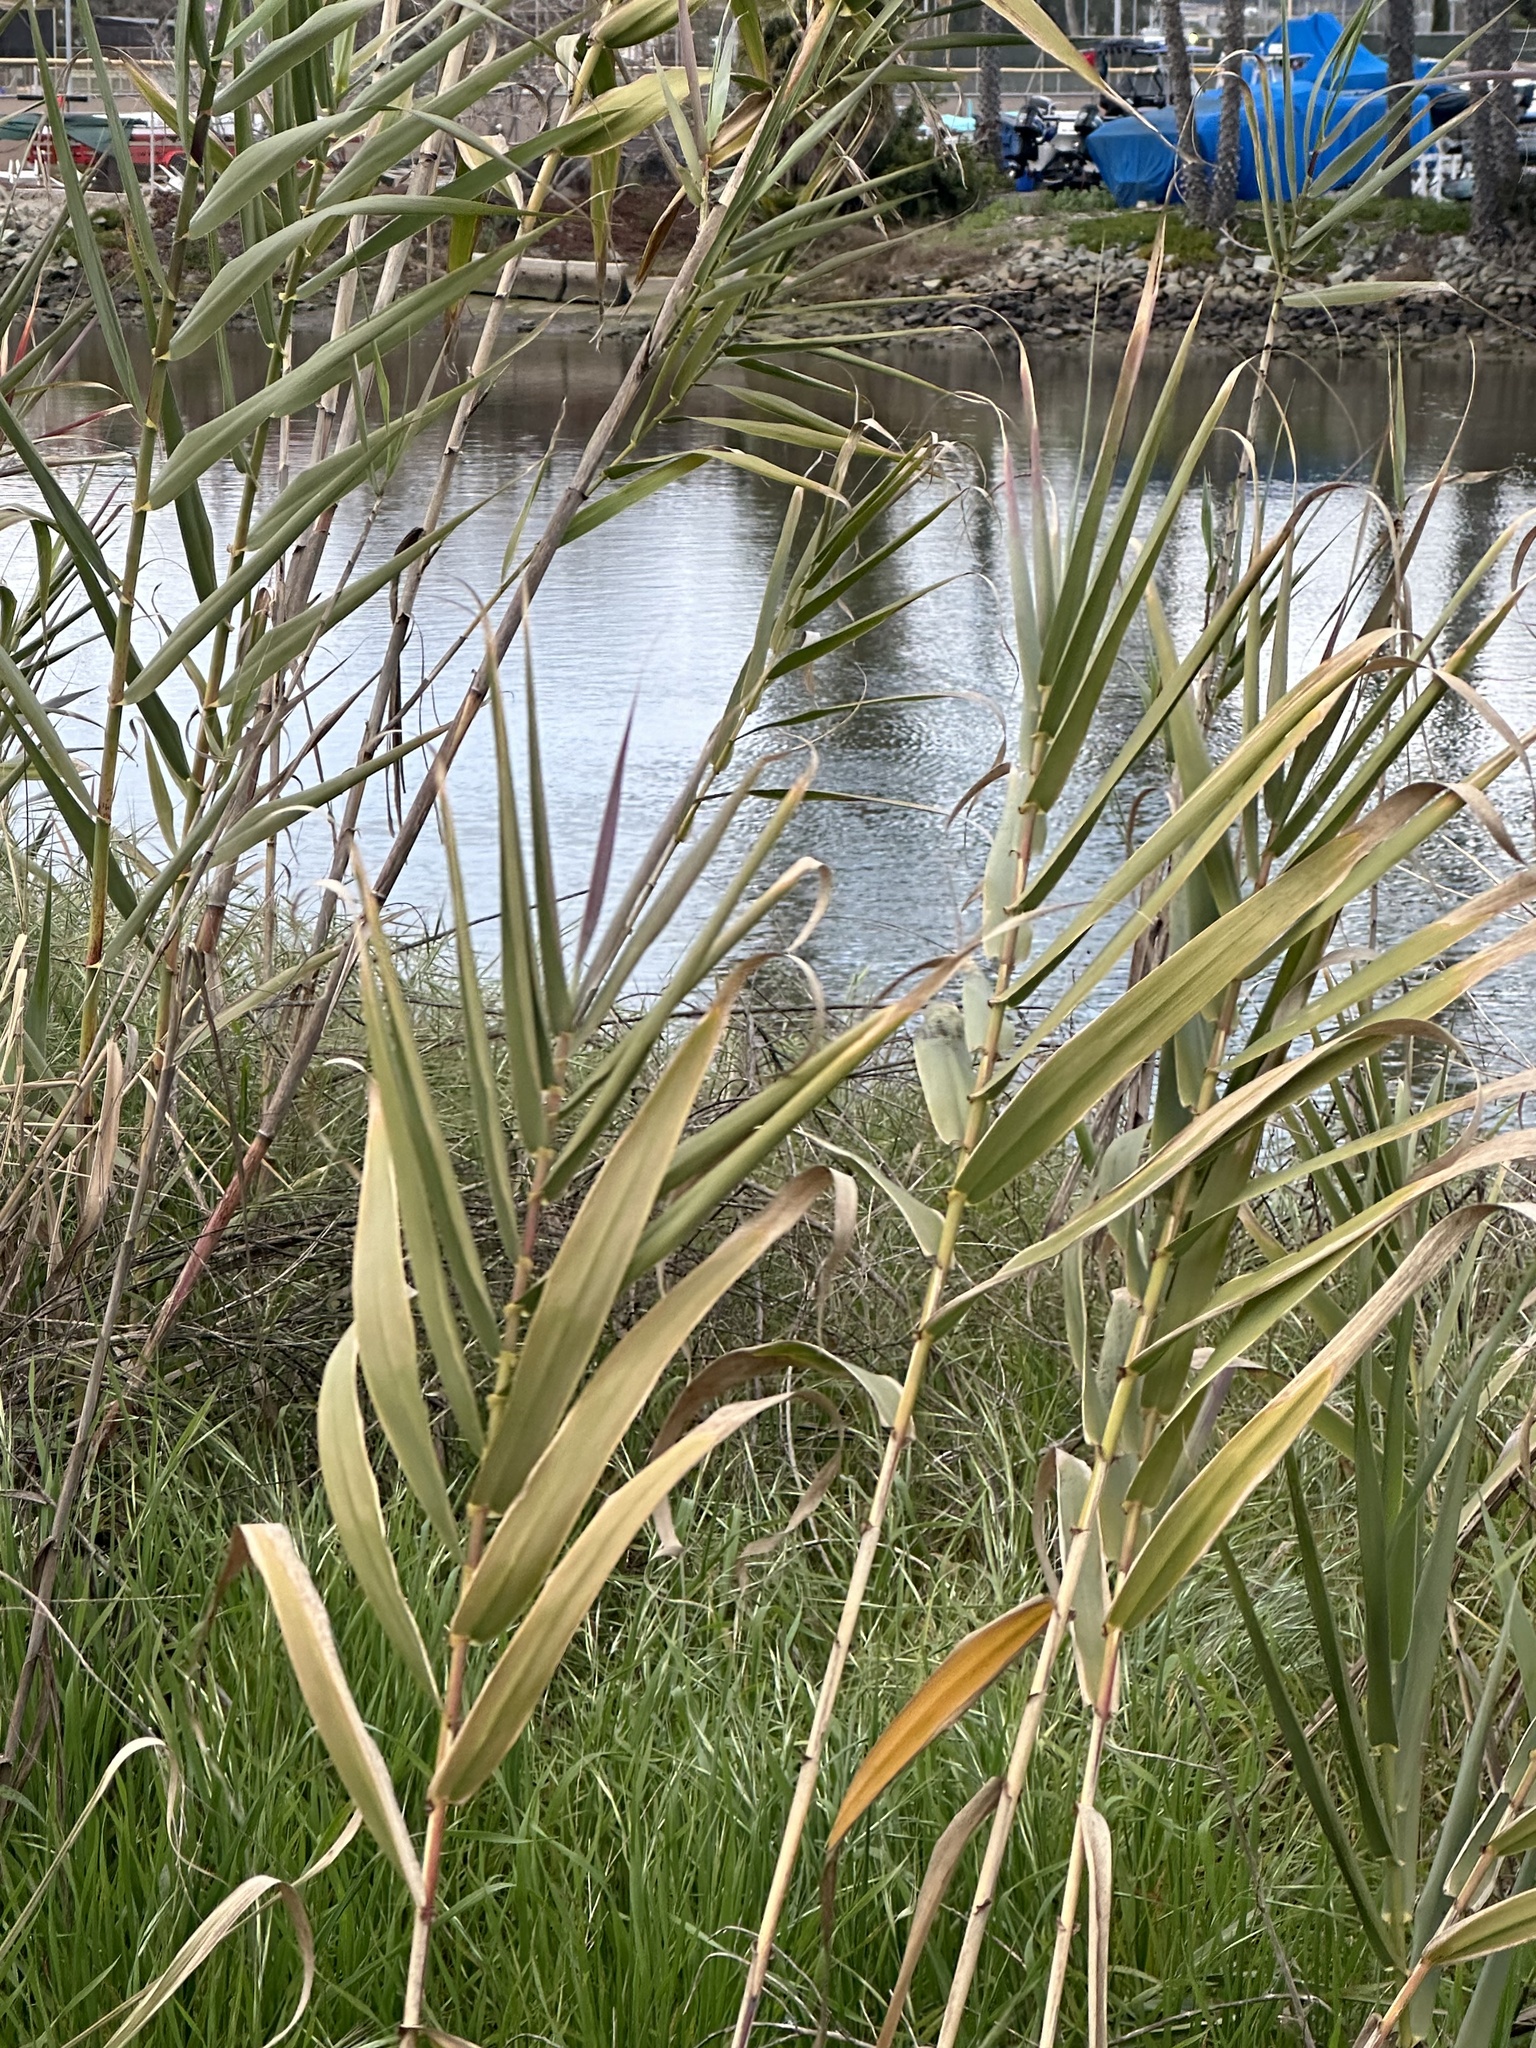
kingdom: Plantae
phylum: Tracheophyta
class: Liliopsida
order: Poales
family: Poaceae
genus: Arundo
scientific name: Arundo donax
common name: Giant reed
